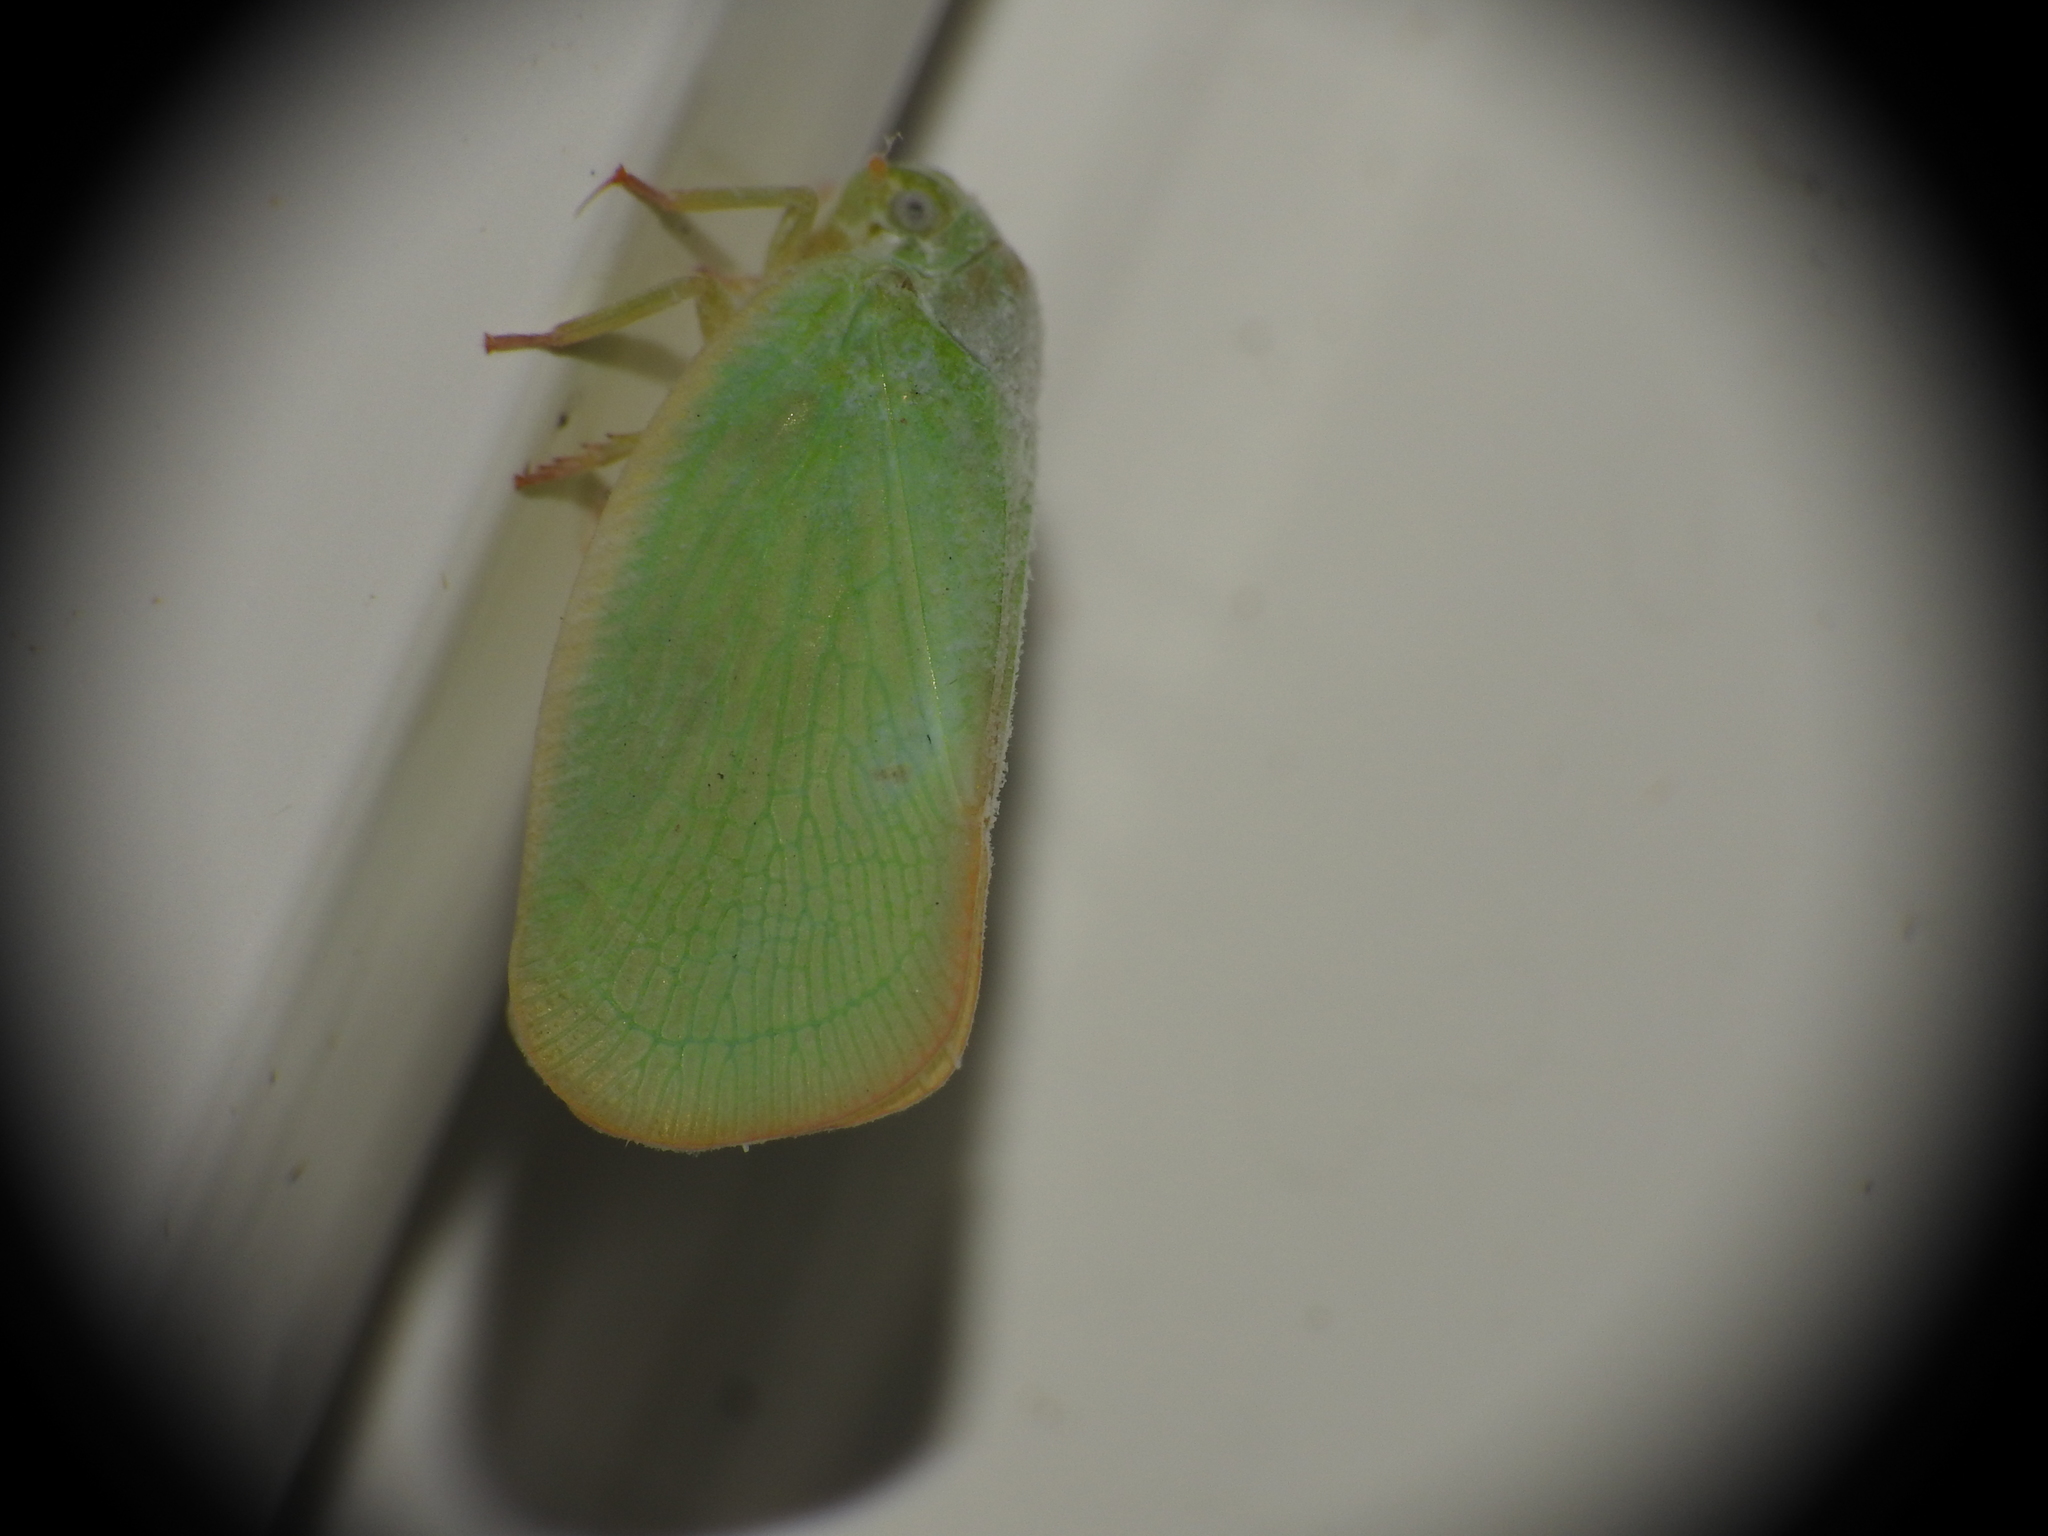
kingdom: Animalia
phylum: Arthropoda
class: Insecta
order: Hemiptera
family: Flatidae
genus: Ormenoides
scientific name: Ormenoides venusta
